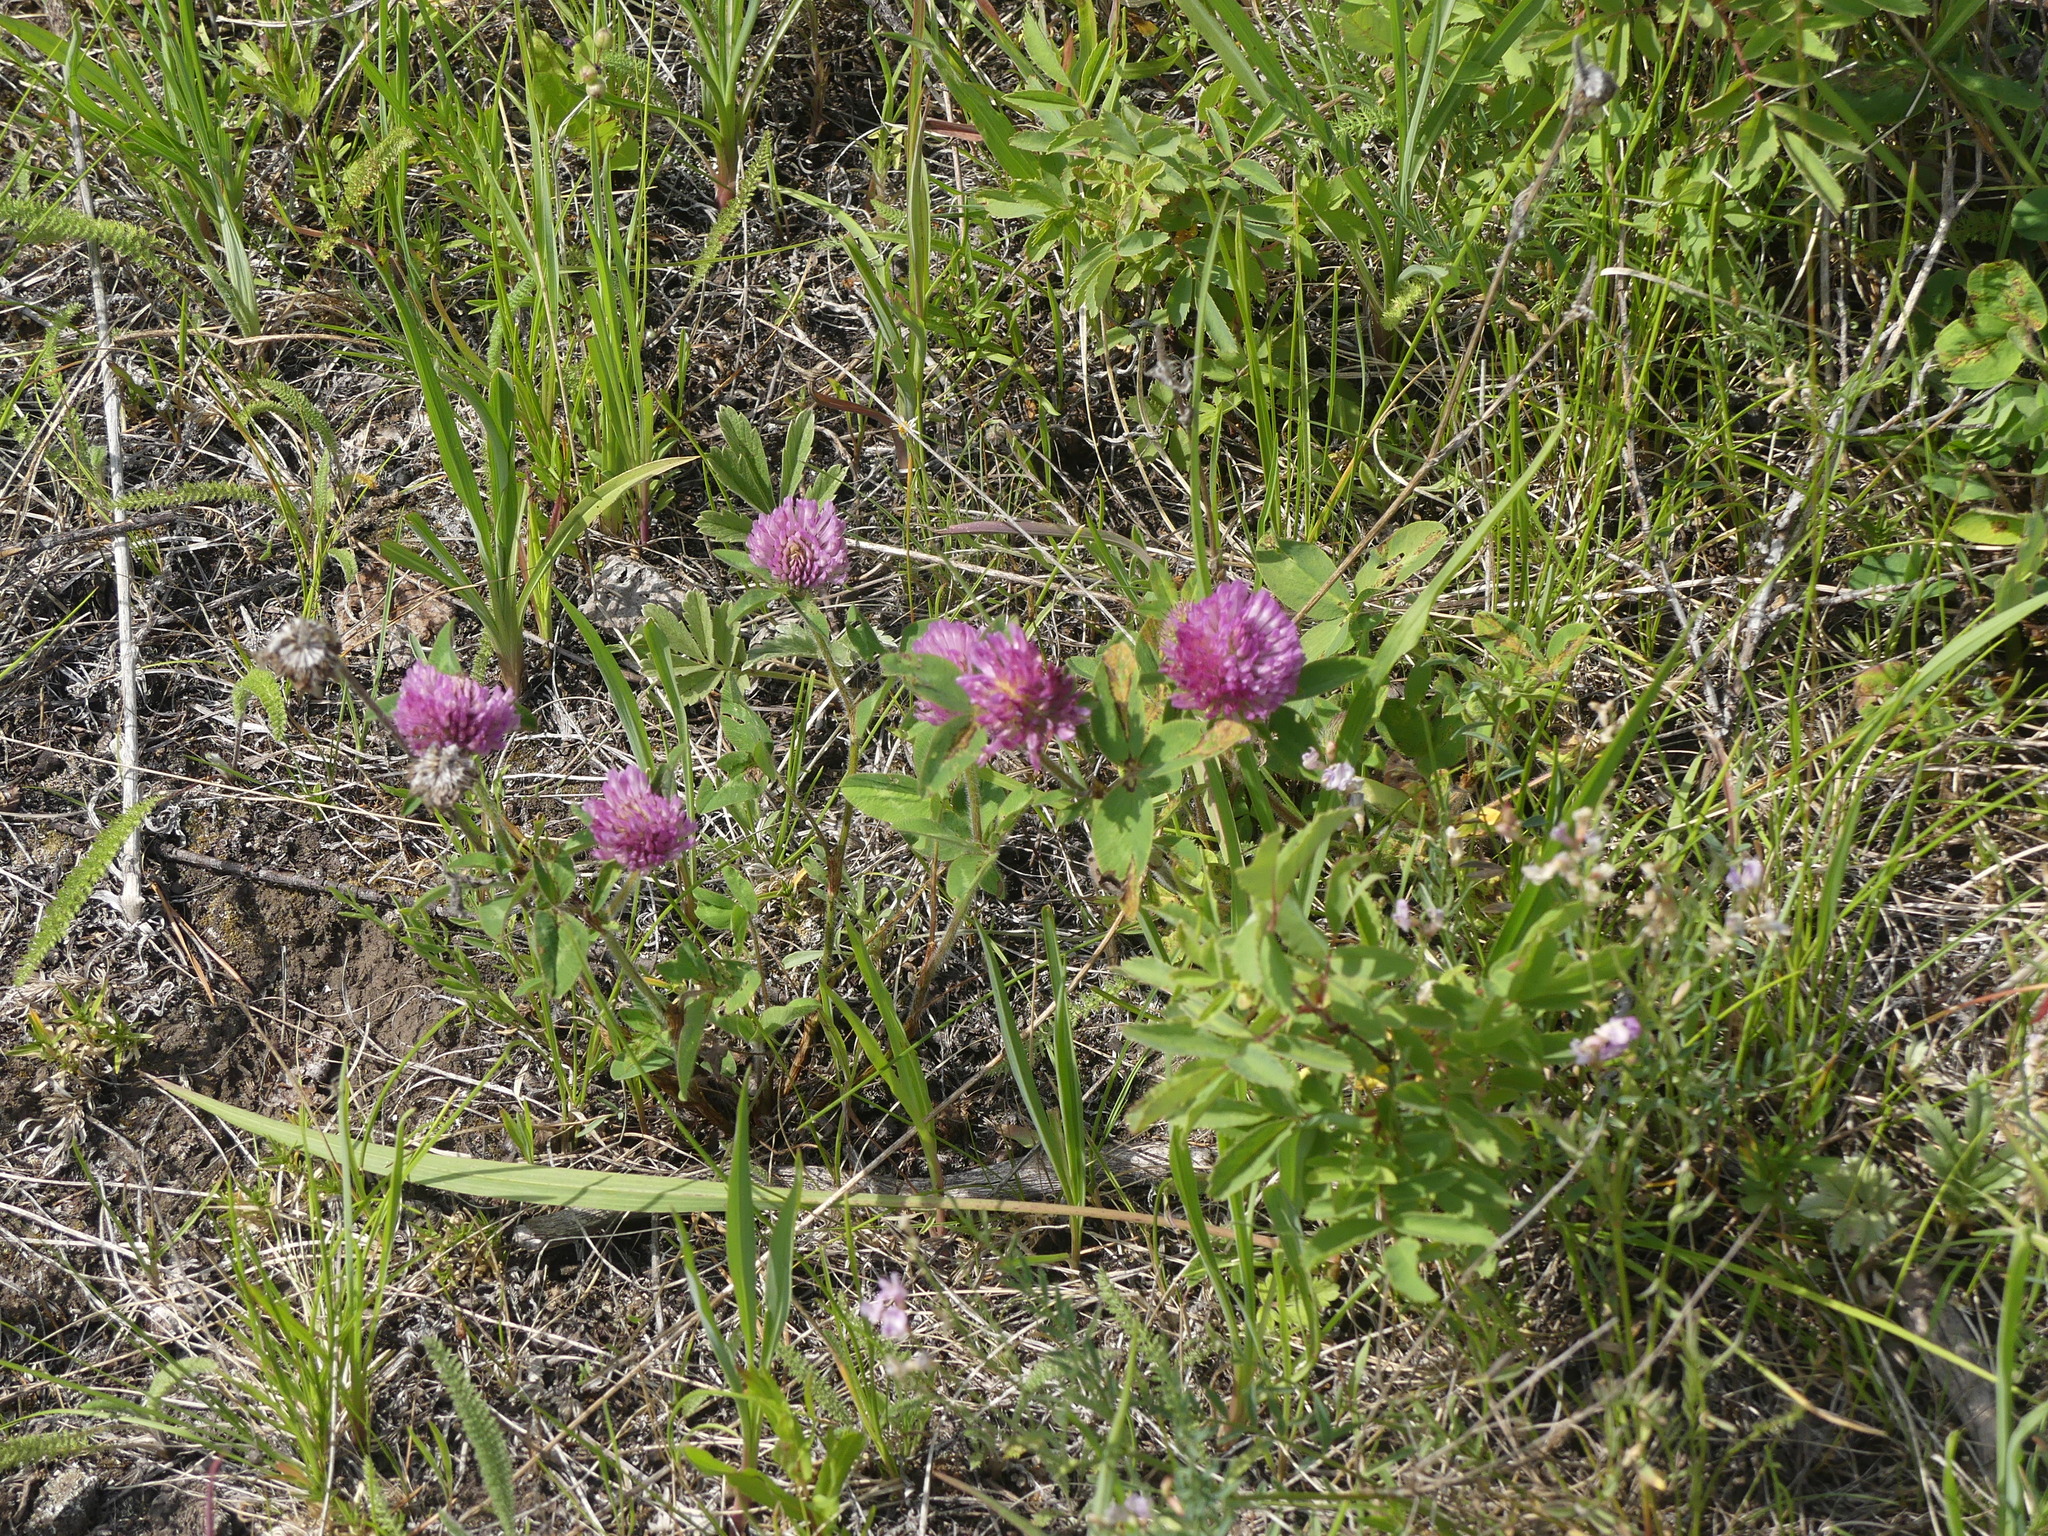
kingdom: Plantae
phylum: Tracheophyta
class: Magnoliopsida
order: Fabales
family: Fabaceae
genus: Trifolium
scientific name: Trifolium pratense
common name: Red clover
